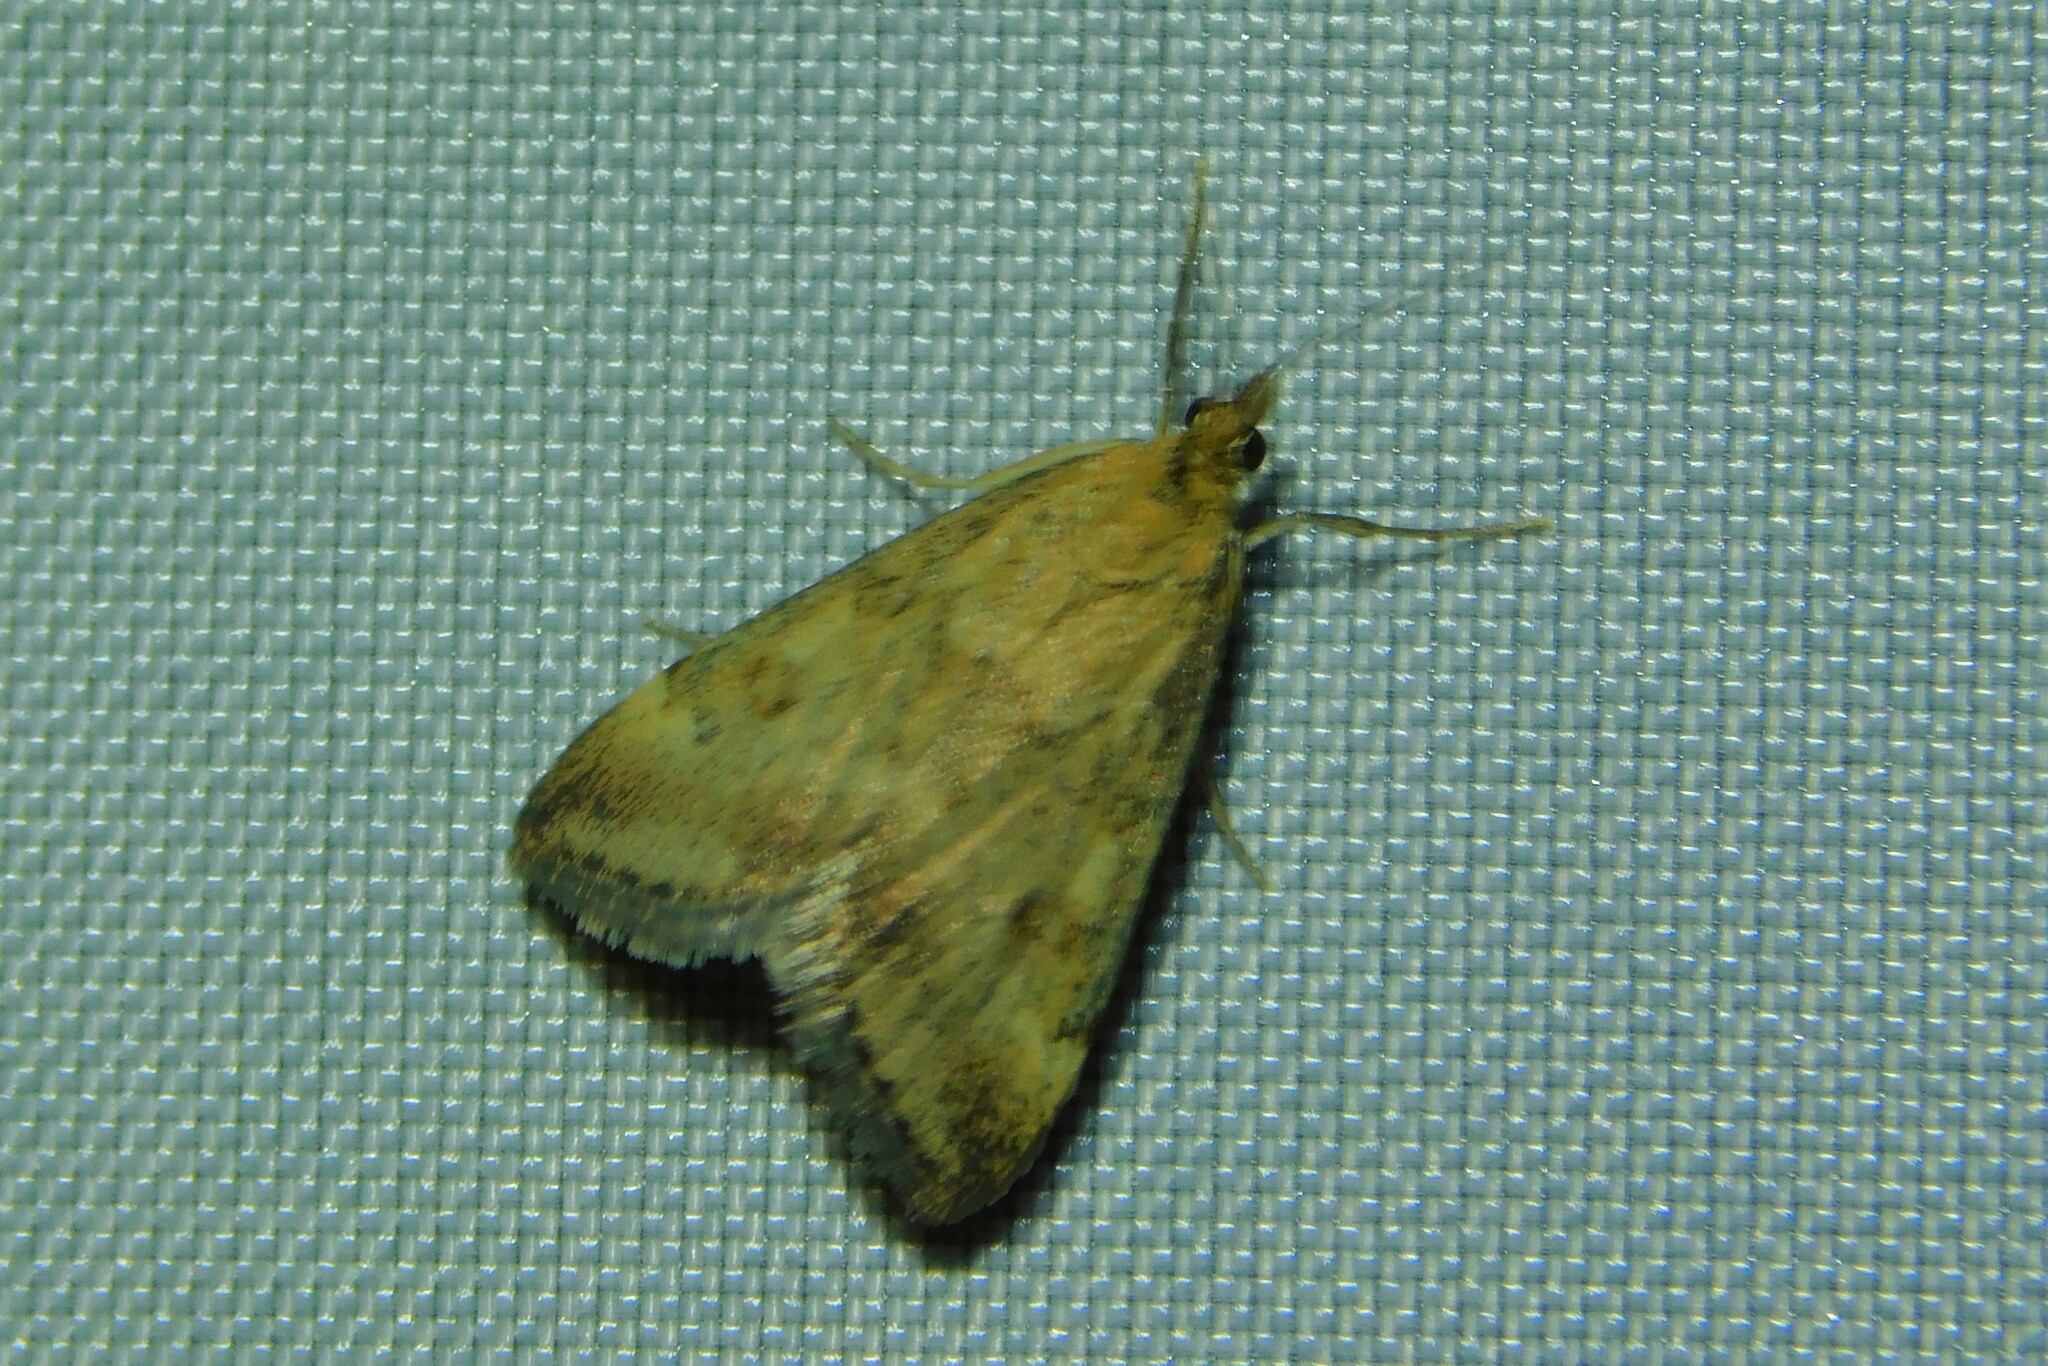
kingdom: Animalia
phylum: Arthropoda
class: Insecta
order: Lepidoptera
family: Crambidae
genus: Pyrausta
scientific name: Pyrausta despicata
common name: Straw-barred pearl
